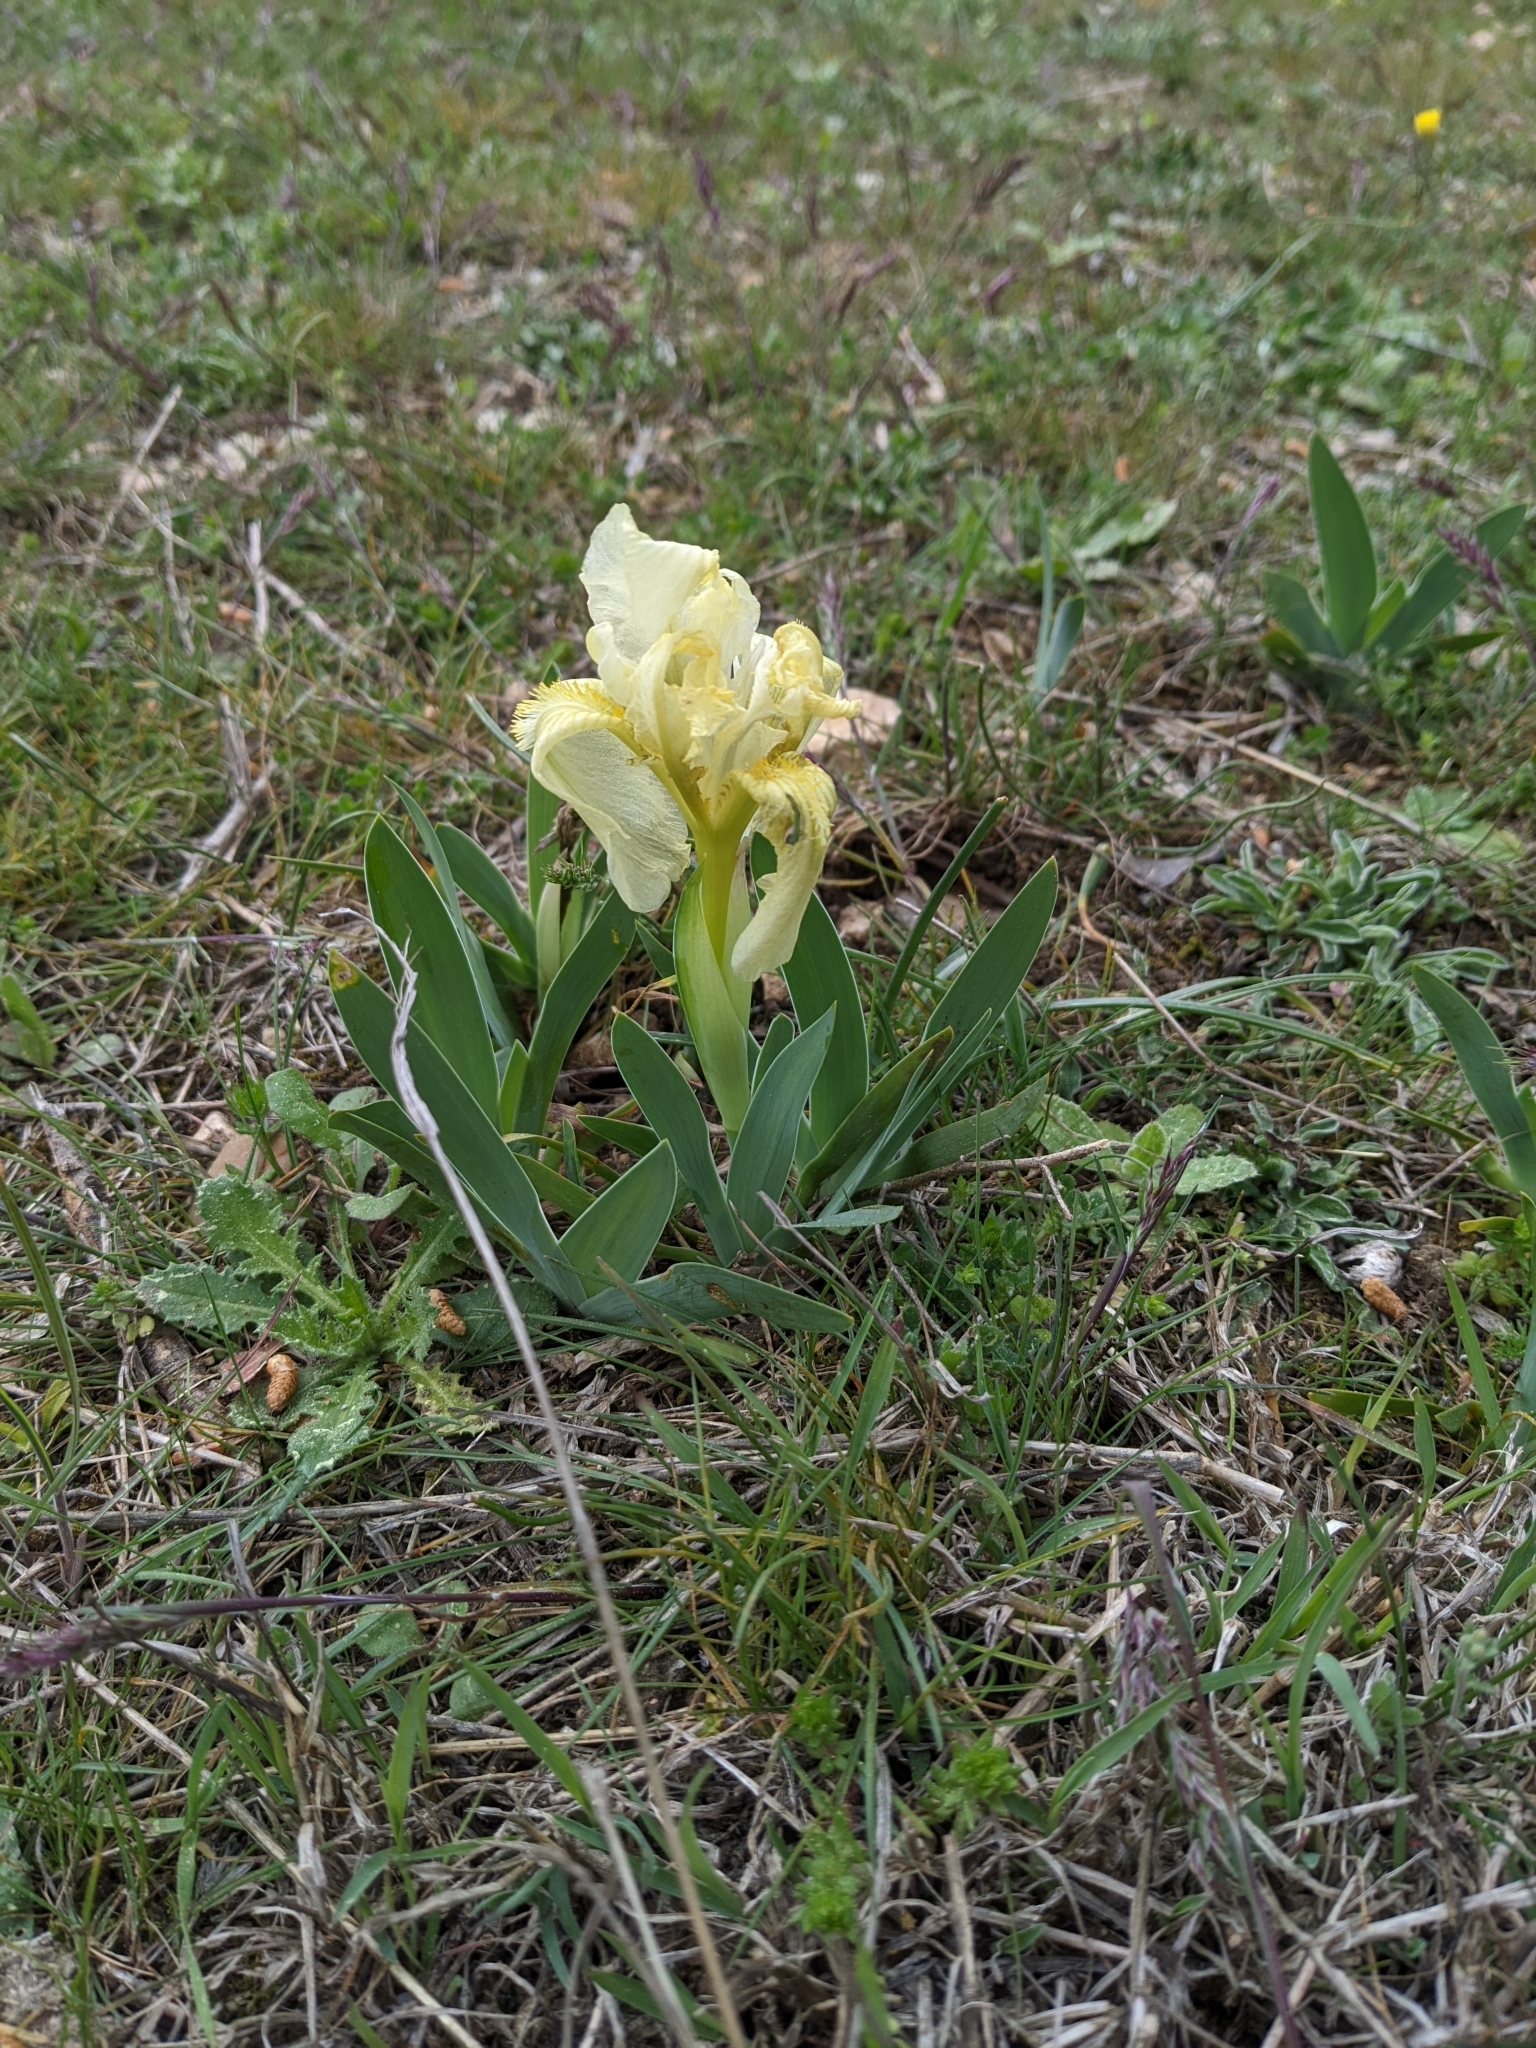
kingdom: Plantae
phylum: Tracheophyta
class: Liliopsida
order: Asparagales
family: Iridaceae
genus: Iris
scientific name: Iris lutescens
